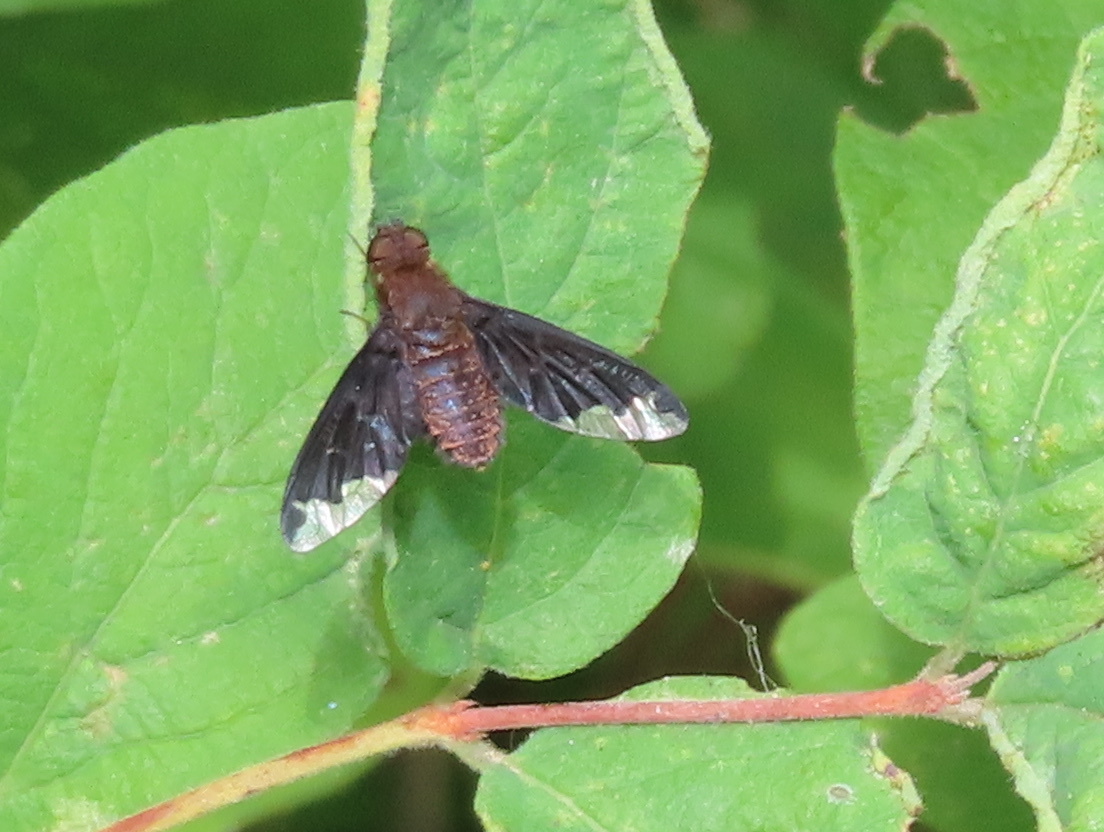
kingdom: Animalia
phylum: Arthropoda
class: Insecta
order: Diptera
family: Bombyliidae
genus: Hemipenthes
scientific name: Hemipenthes sinuosus
